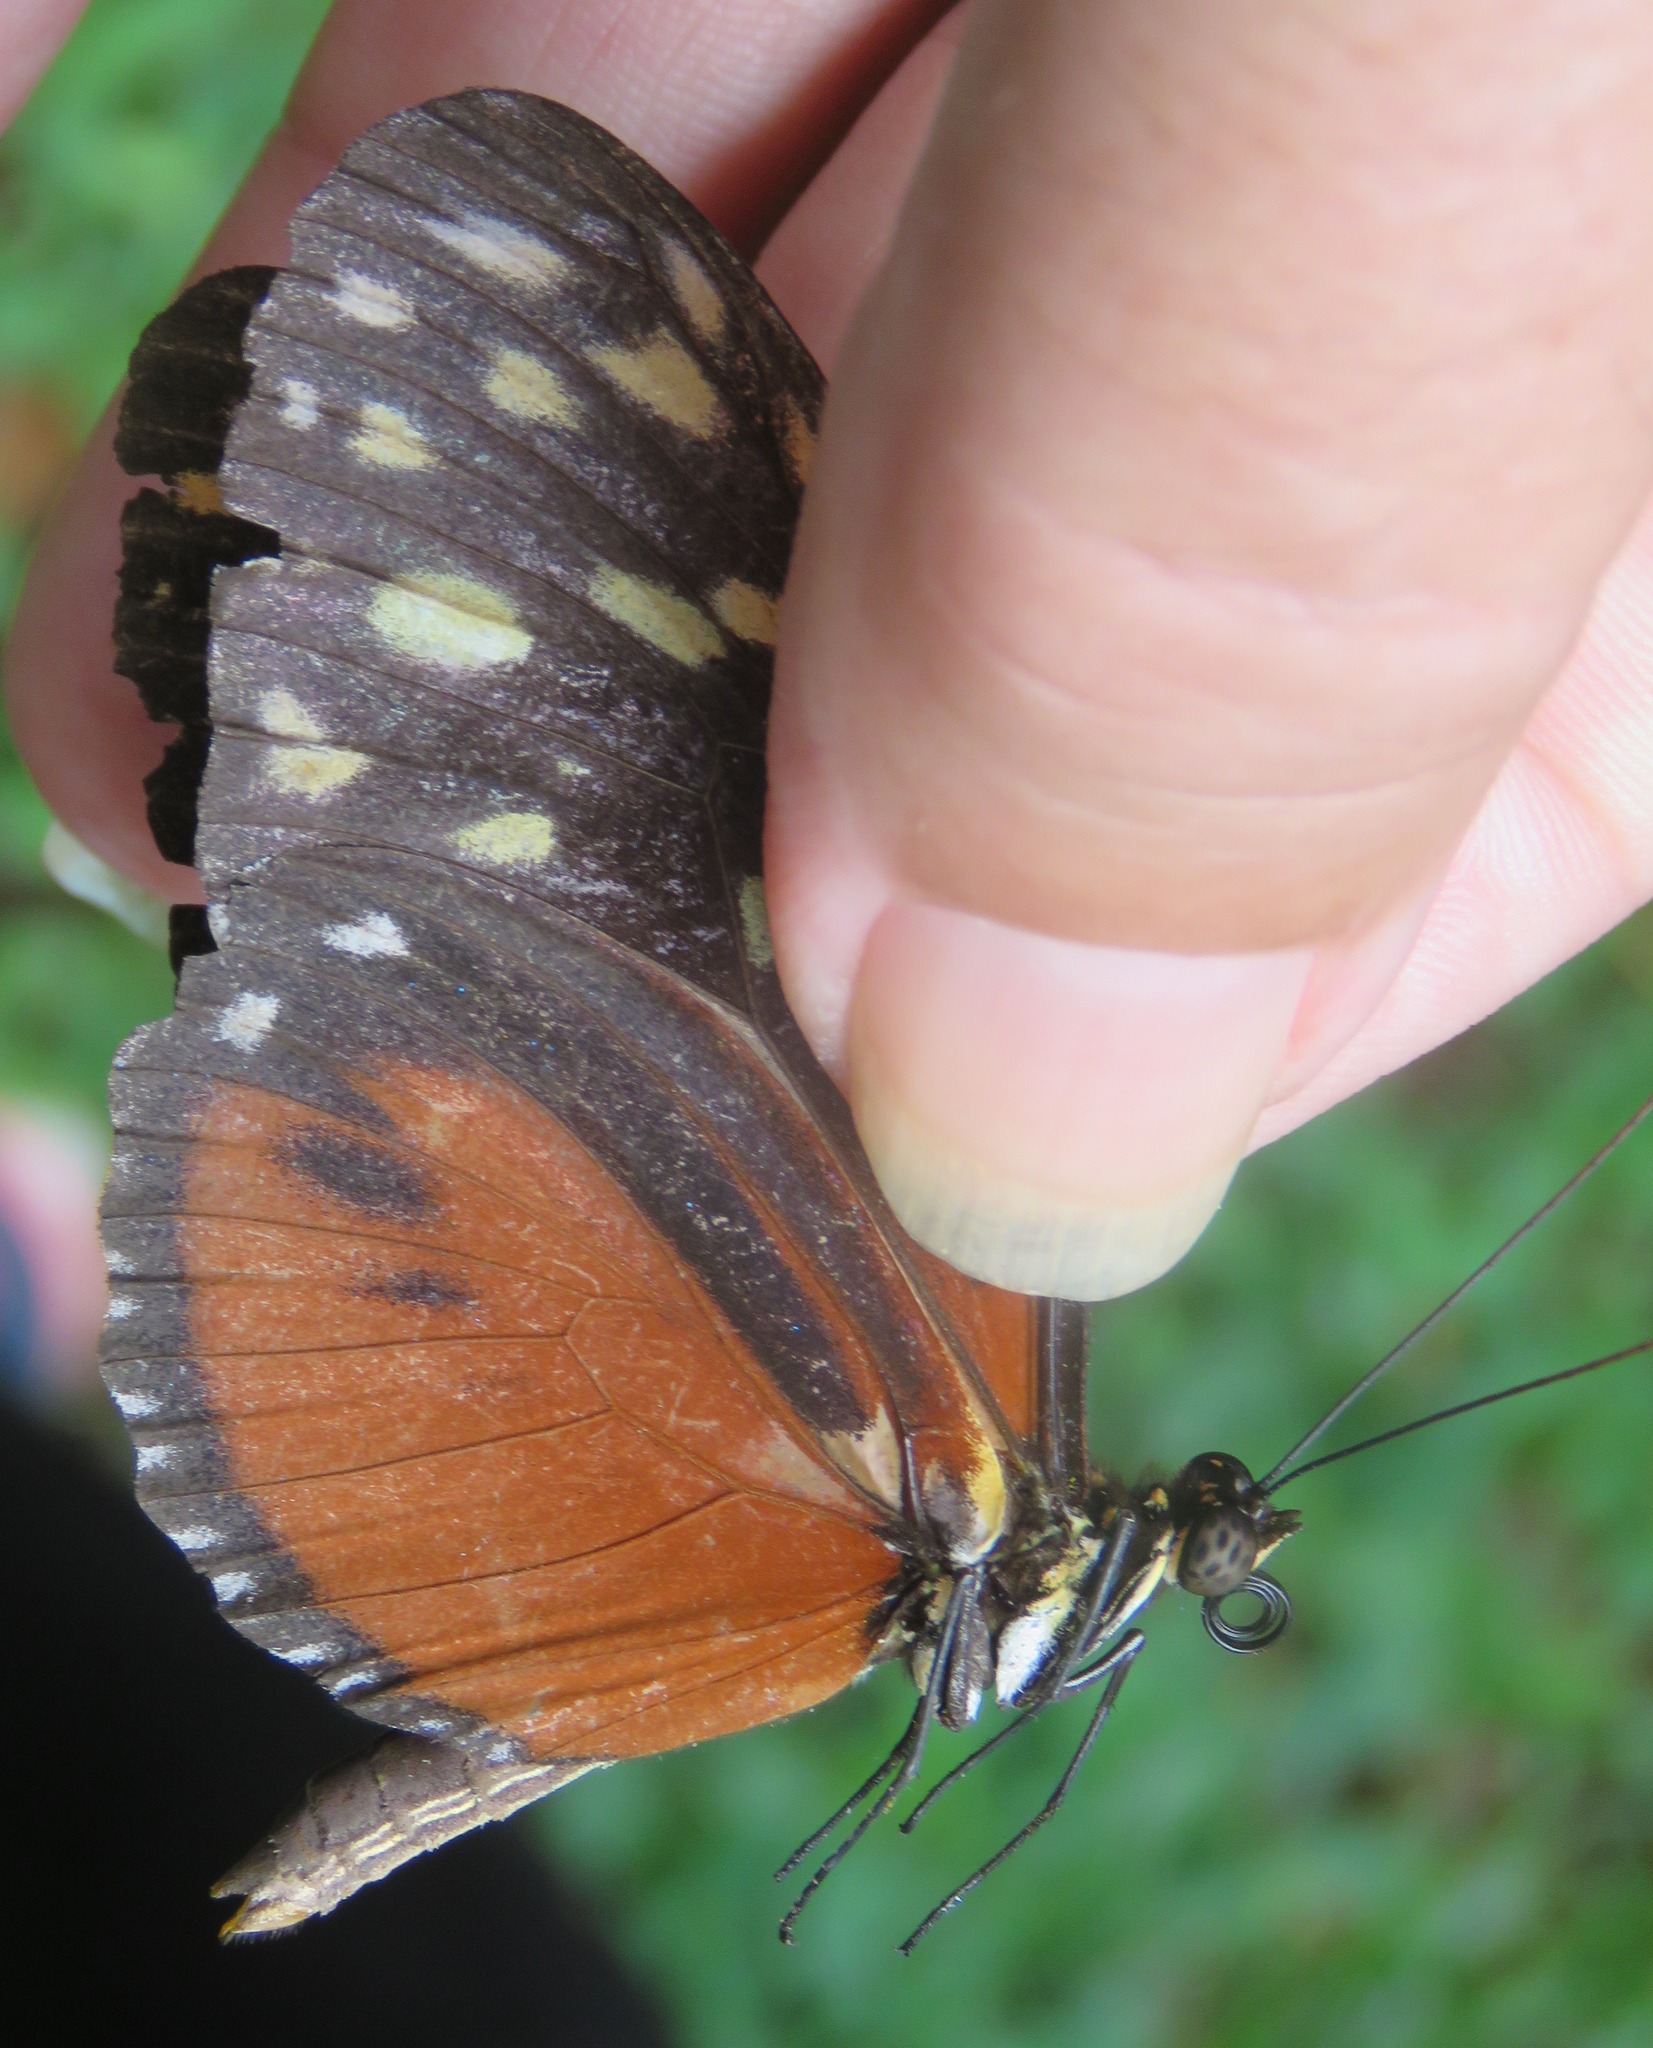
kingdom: Animalia
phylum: Arthropoda
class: Insecta
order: Lepidoptera
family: Nymphalidae
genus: Heliconius
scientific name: Heliconius hecale
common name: Tiger longwing
